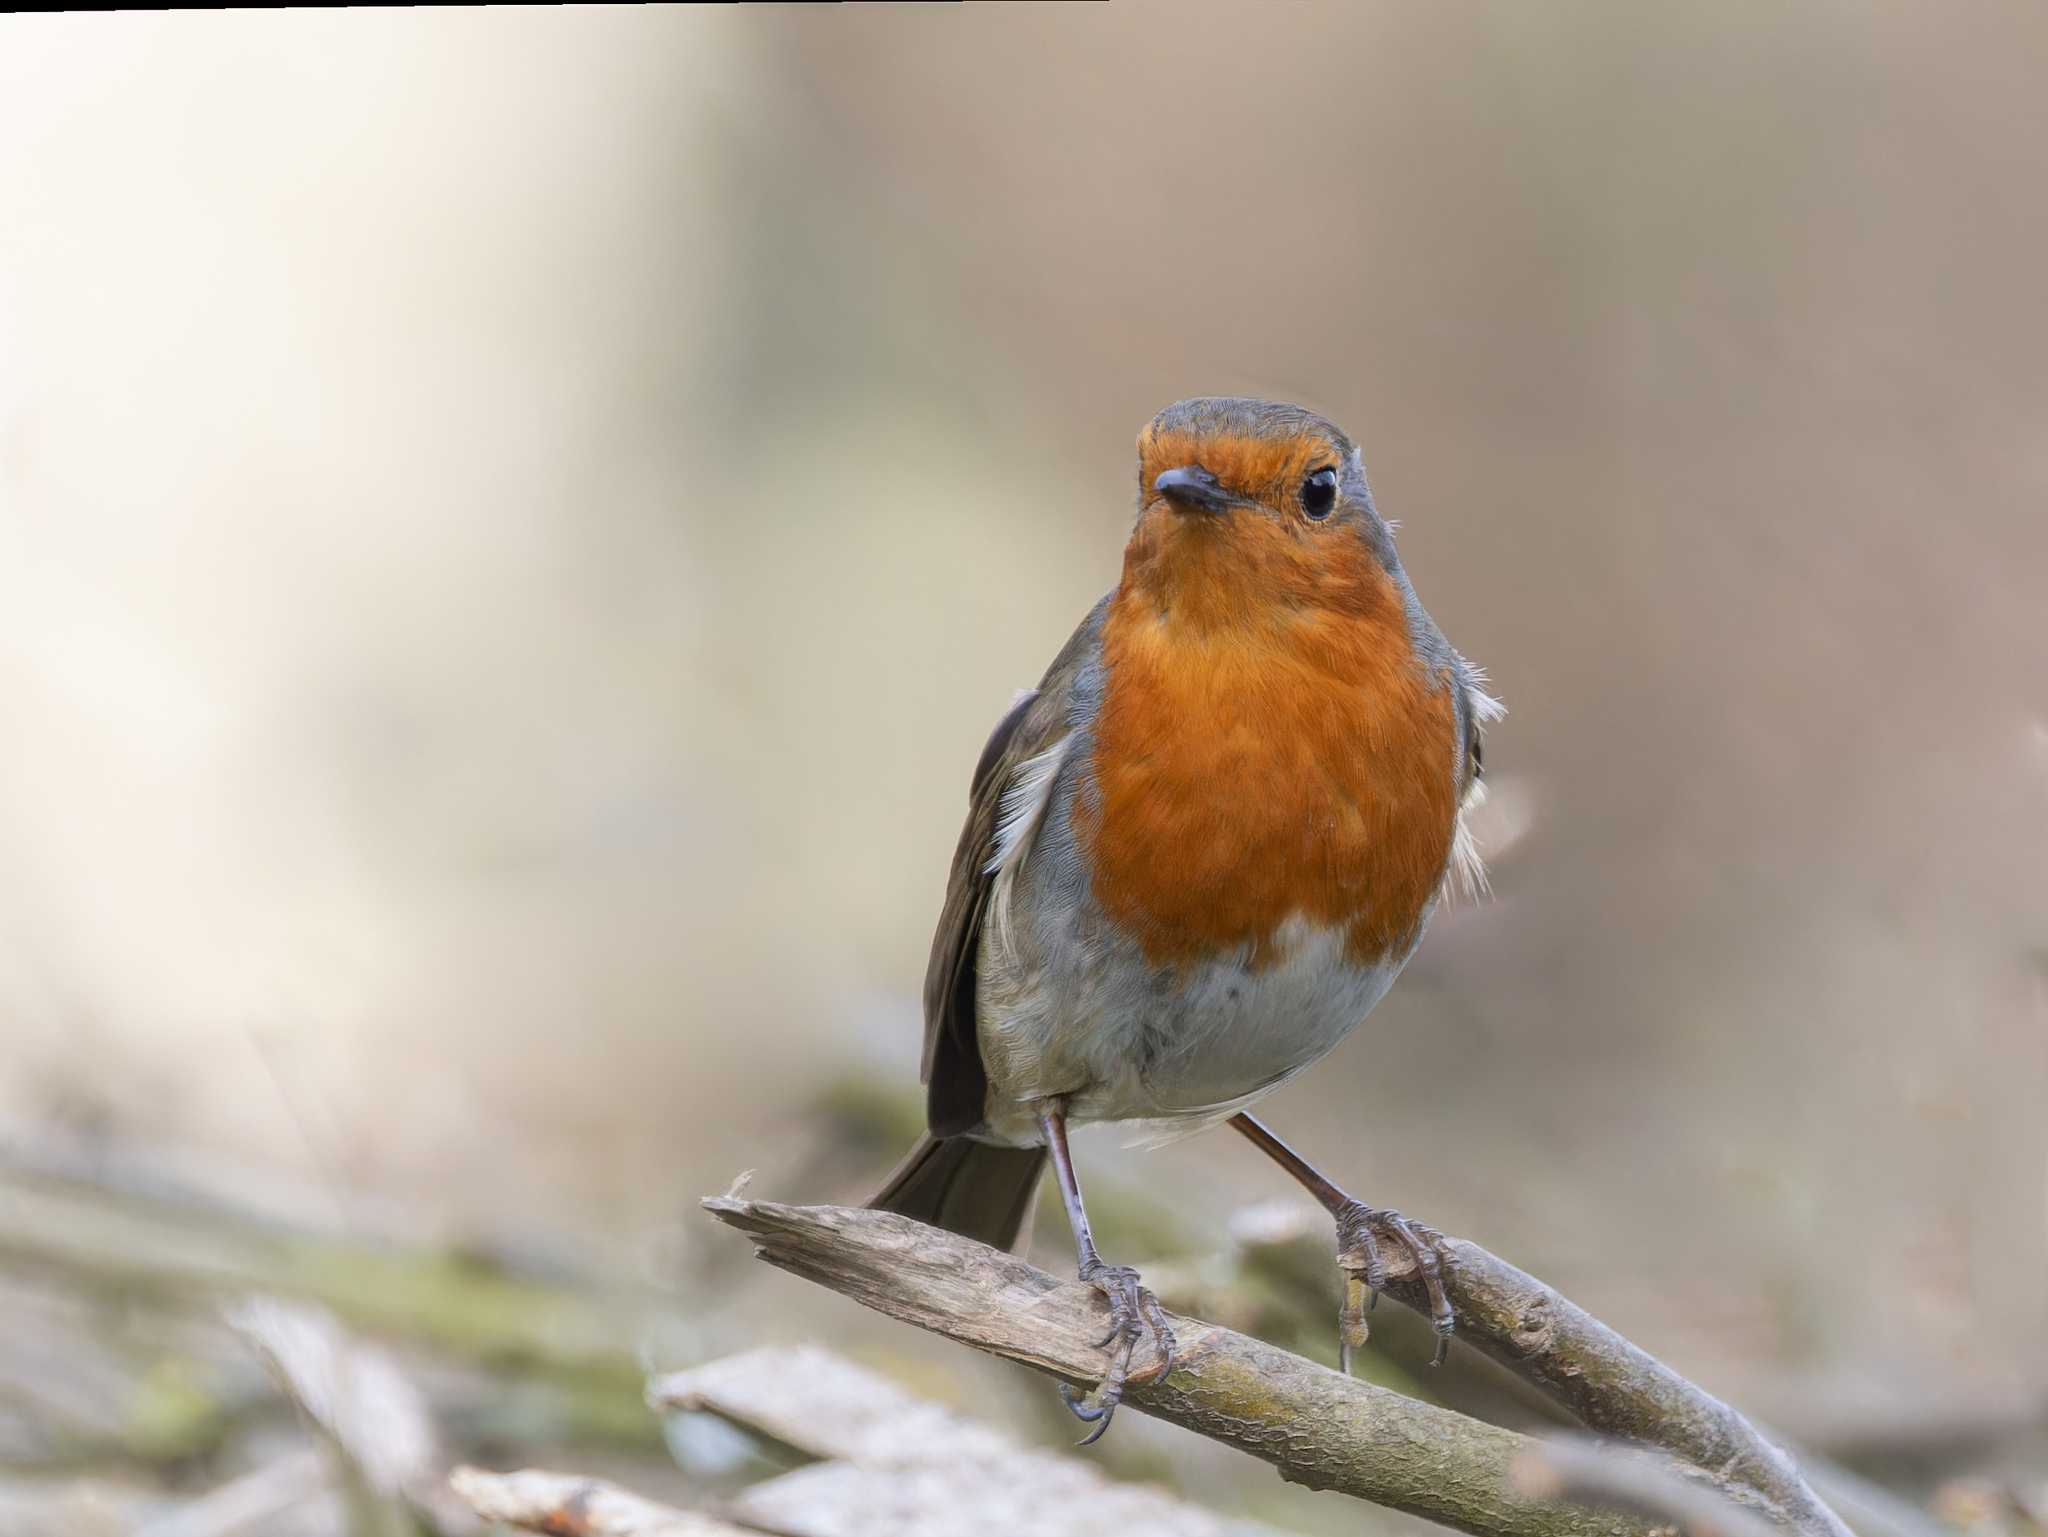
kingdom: Animalia
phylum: Chordata
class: Aves
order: Passeriformes
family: Muscicapidae
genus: Erithacus
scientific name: Erithacus rubecula
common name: European robin
